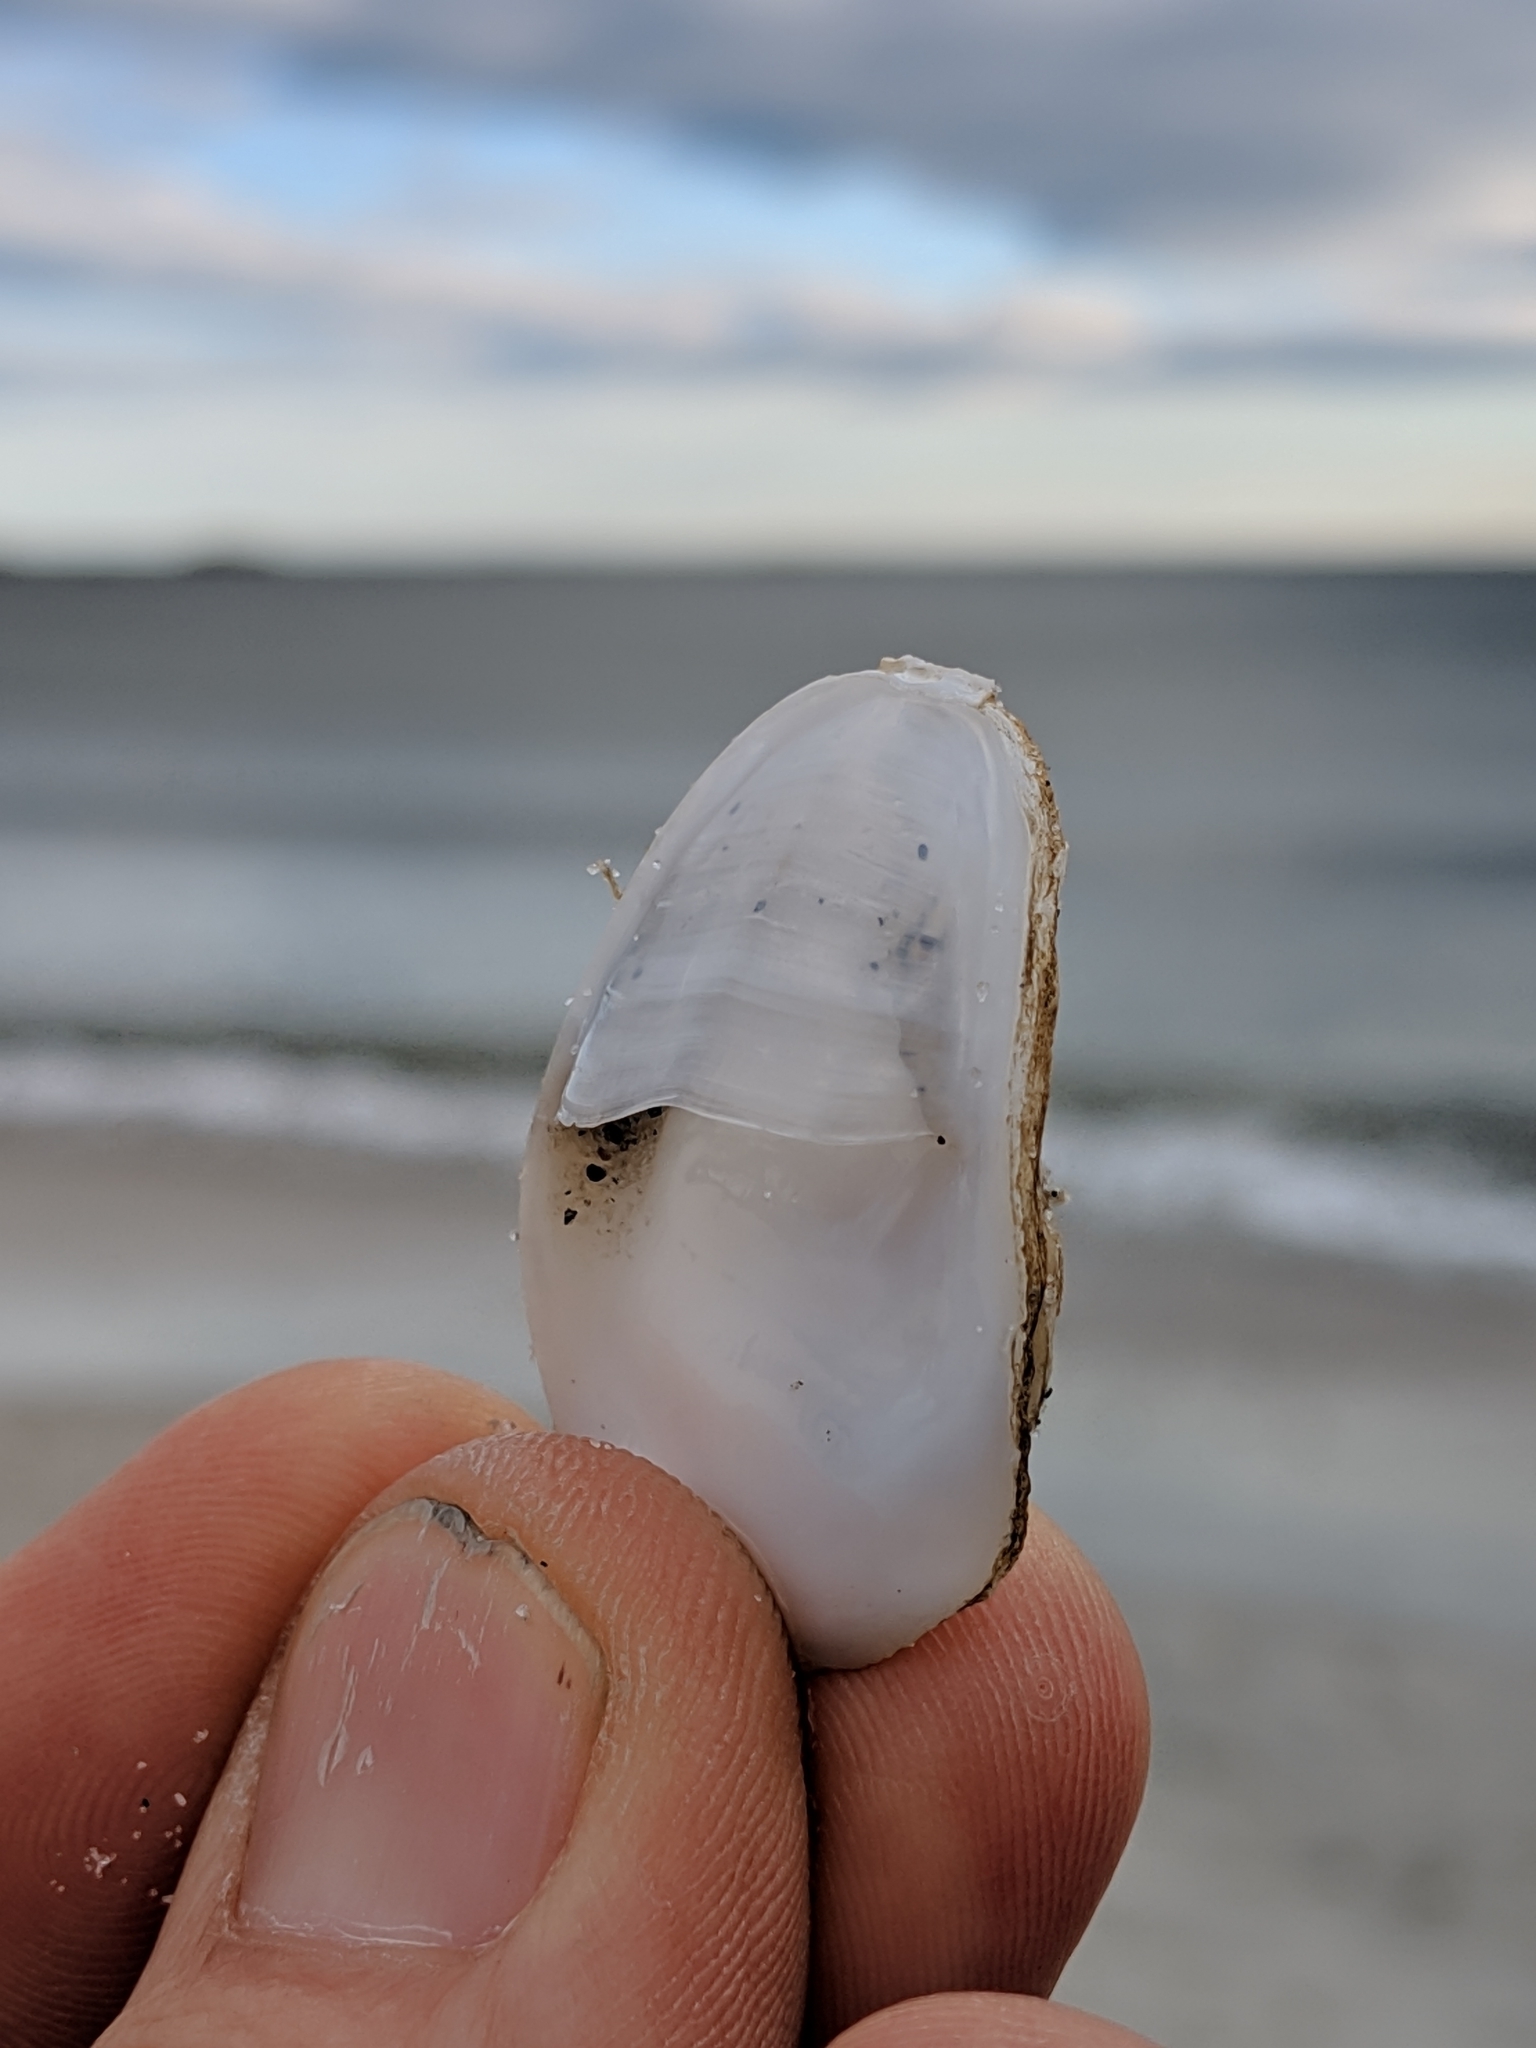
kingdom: Animalia
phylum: Mollusca
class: Gastropoda
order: Littorinimorpha
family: Calyptraeidae
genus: Crepidula
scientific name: Crepidula plana
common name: Eastern white slippersnail
